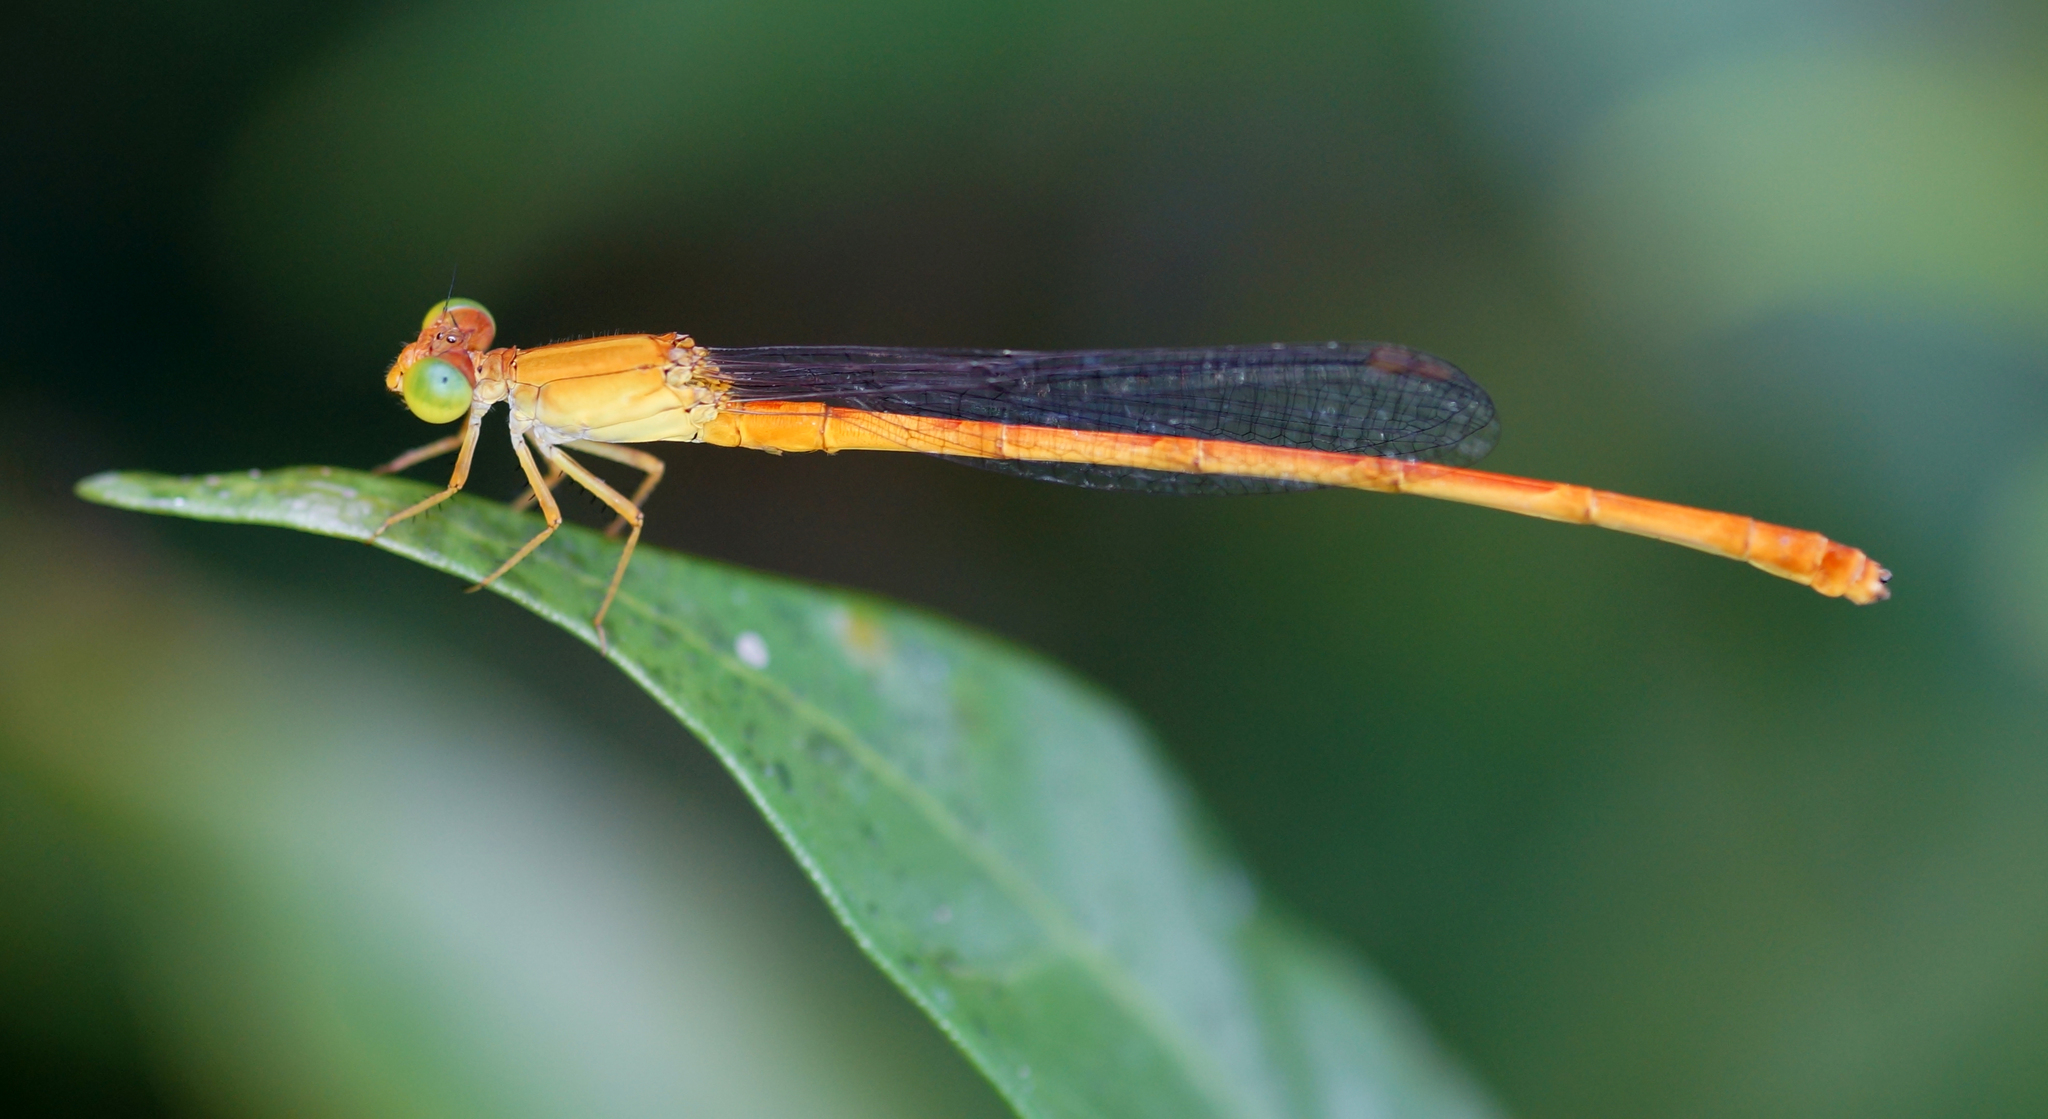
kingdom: Animalia
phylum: Arthropoda
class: Insecta
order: Odonata
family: Coenagrionidae
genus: Ceriagrion
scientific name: Ceriagrion calamineum
